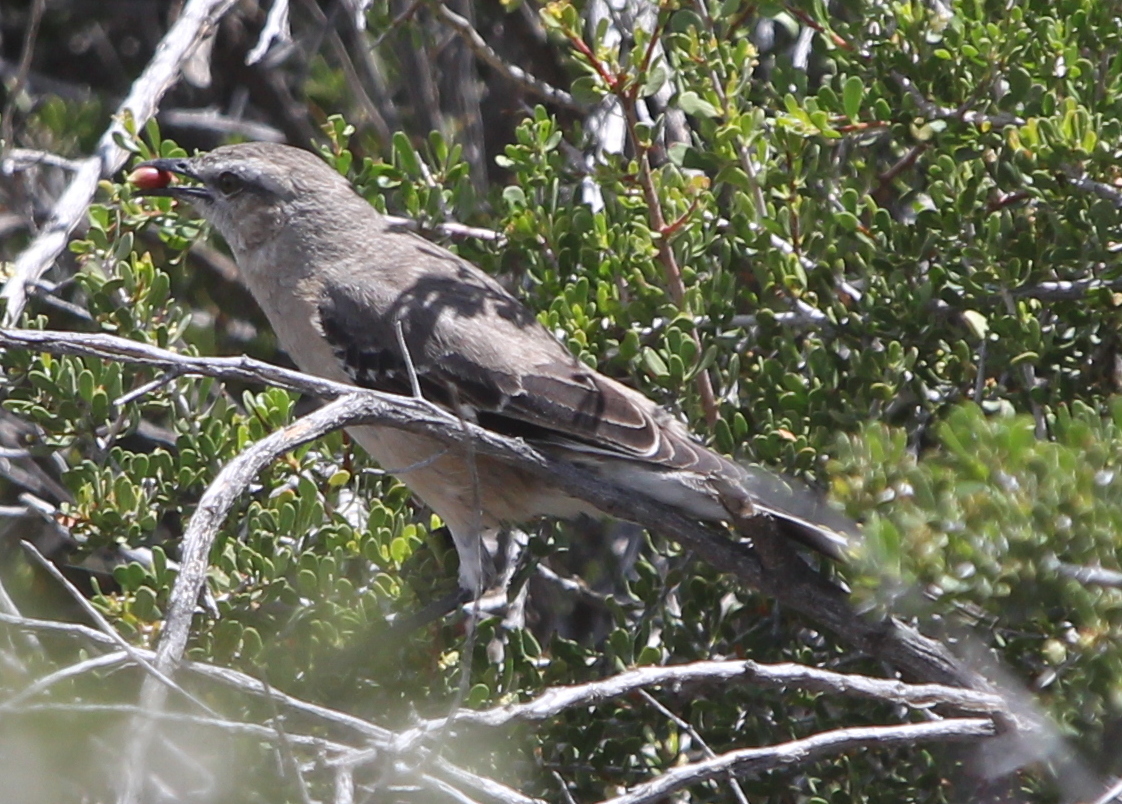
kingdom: Animalia
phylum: Chordata
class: Aves
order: Passeriformes
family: Mimidae
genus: Mimus
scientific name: Mimus patagonicus
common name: Patagonian mockingbird
